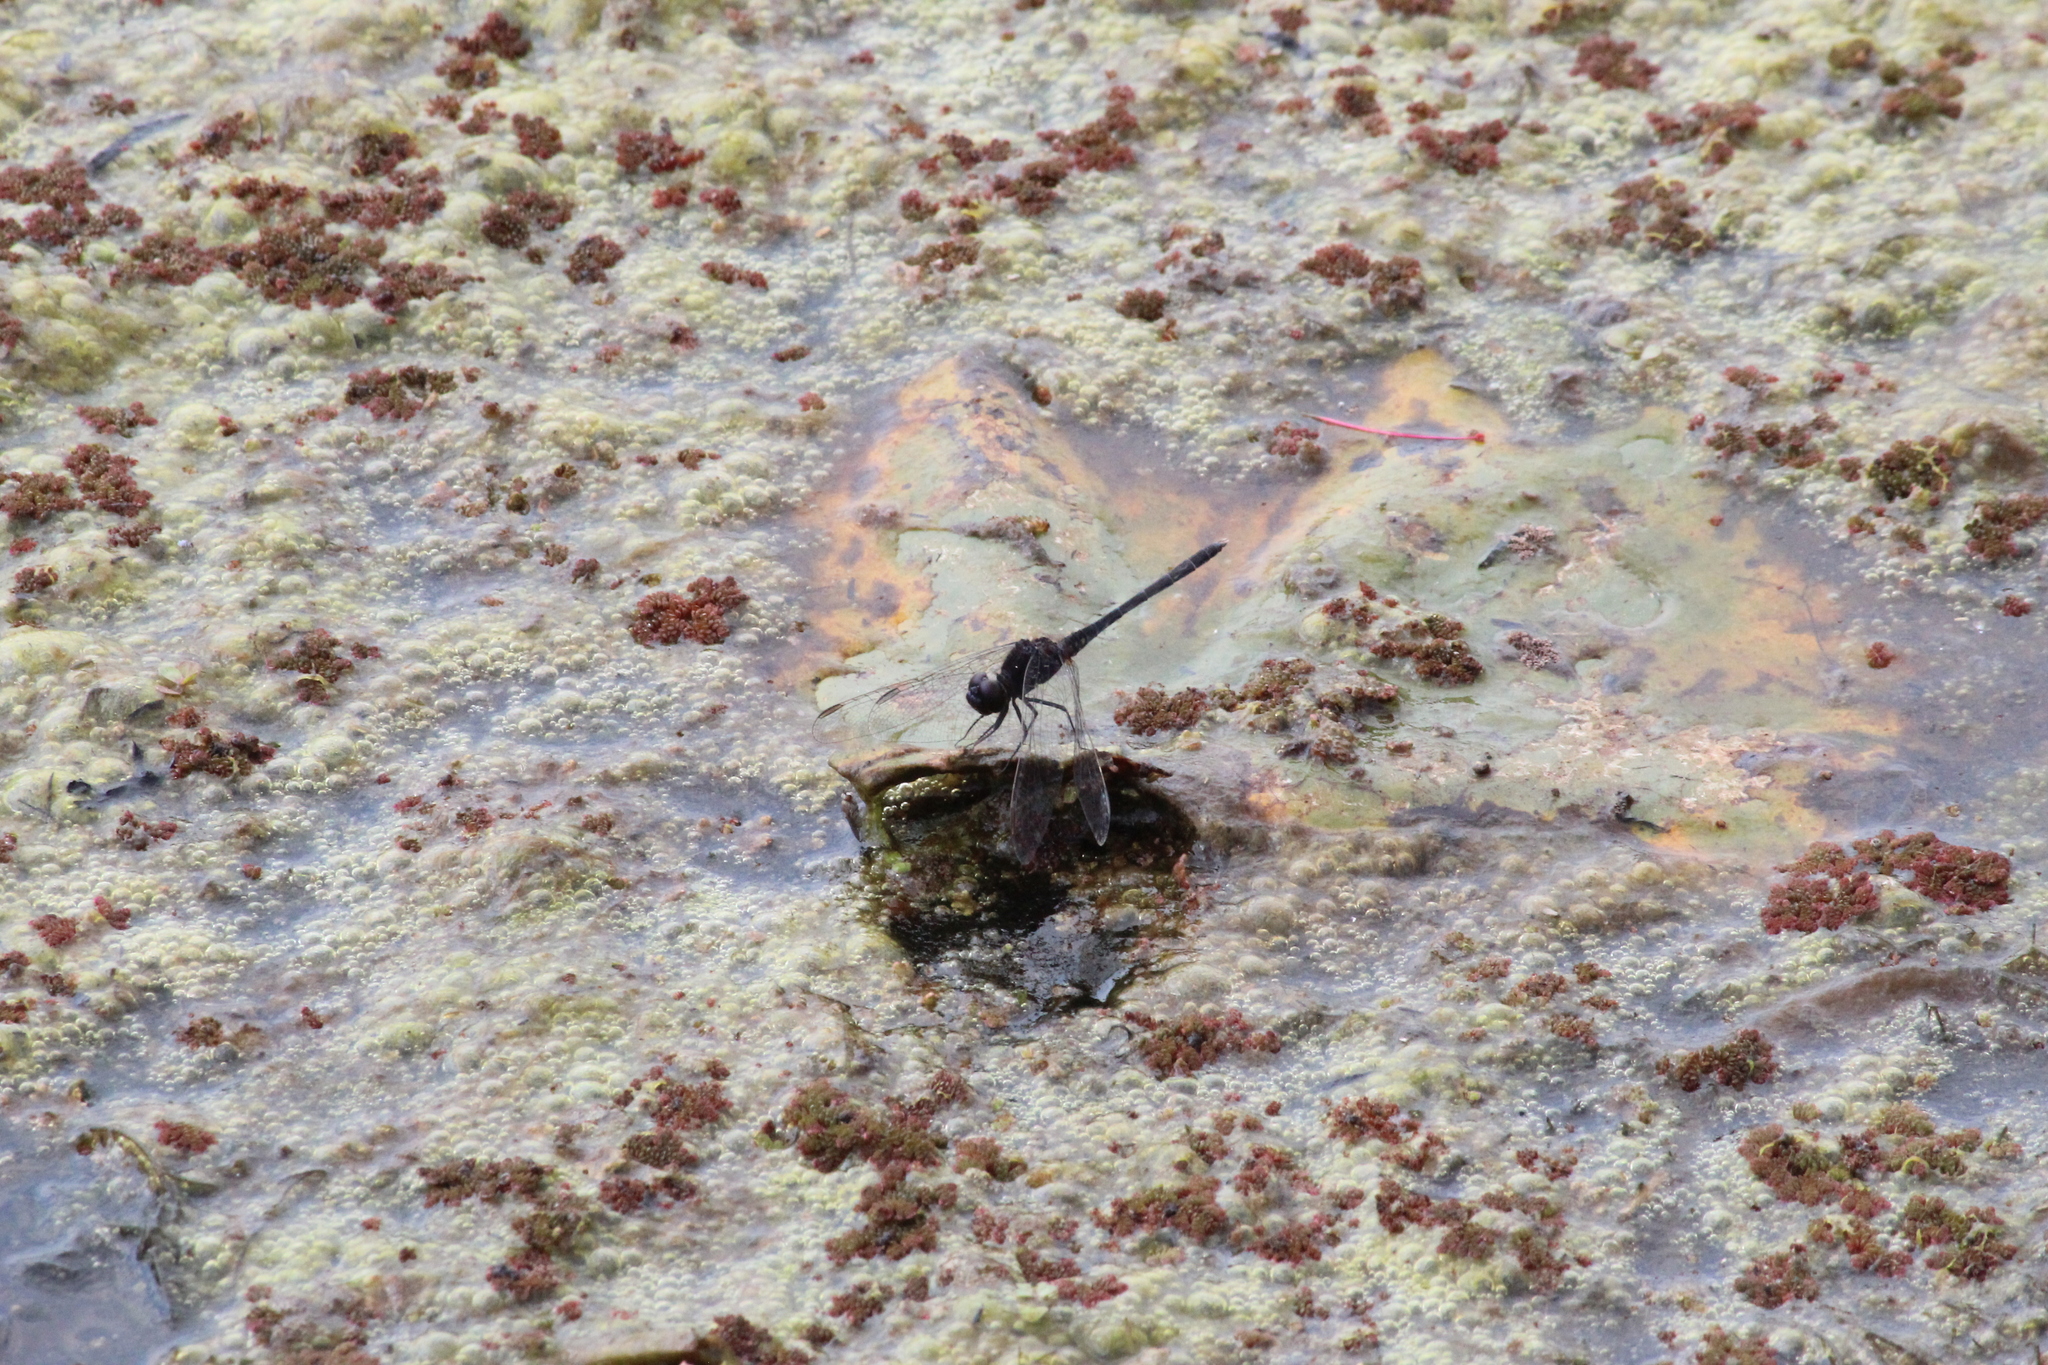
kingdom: Animalia
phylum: Arthropoda
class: Insecta
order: Odonata
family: Libellulidae
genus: Diplacodes
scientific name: Diplacodes lefebvrii
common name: Black percher
